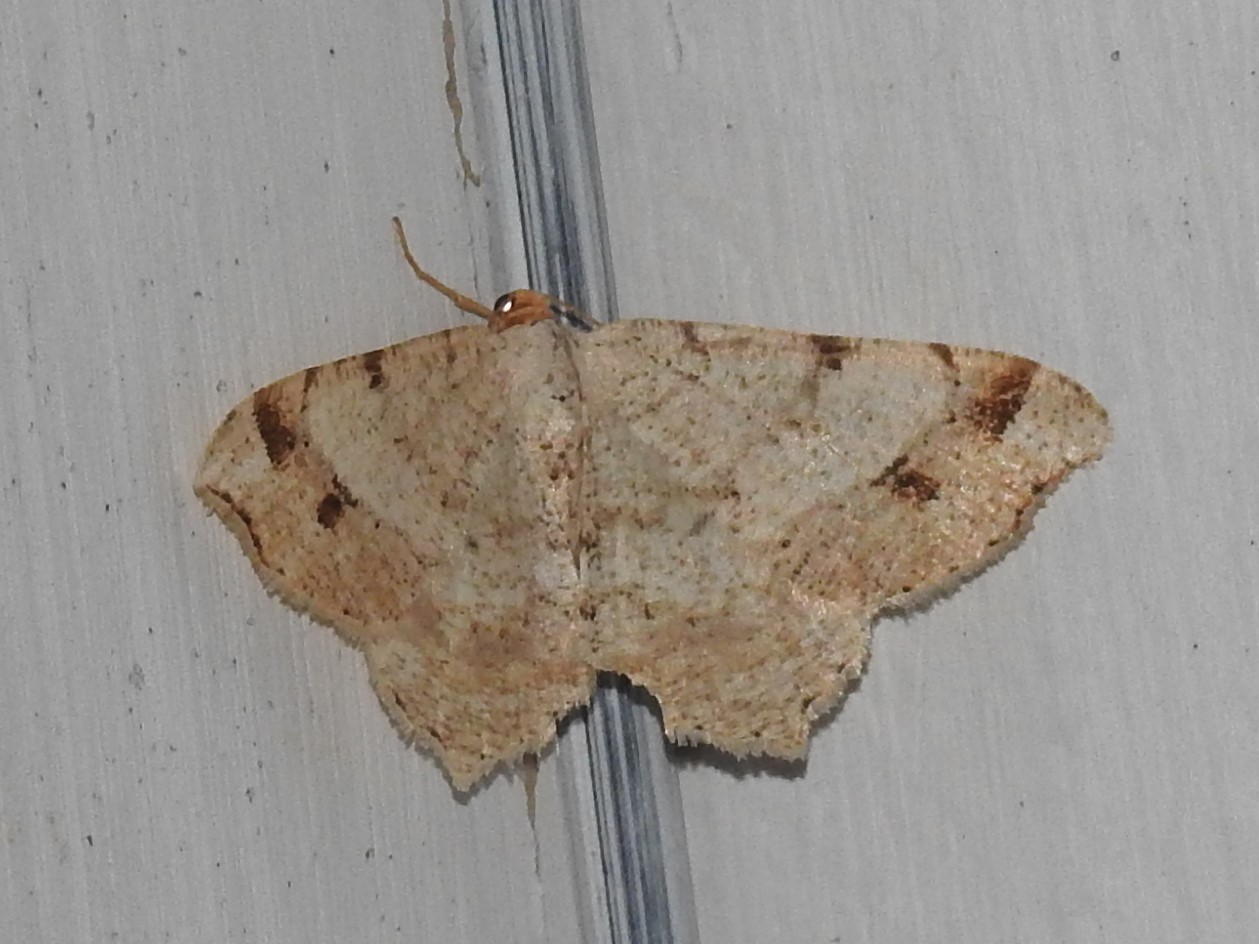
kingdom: Animalia
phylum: Arthropoda
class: Insecta
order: Lepidoptera
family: Geometridae
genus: Macaria
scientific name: Macaria bisignata
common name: Red-headed inchworm
